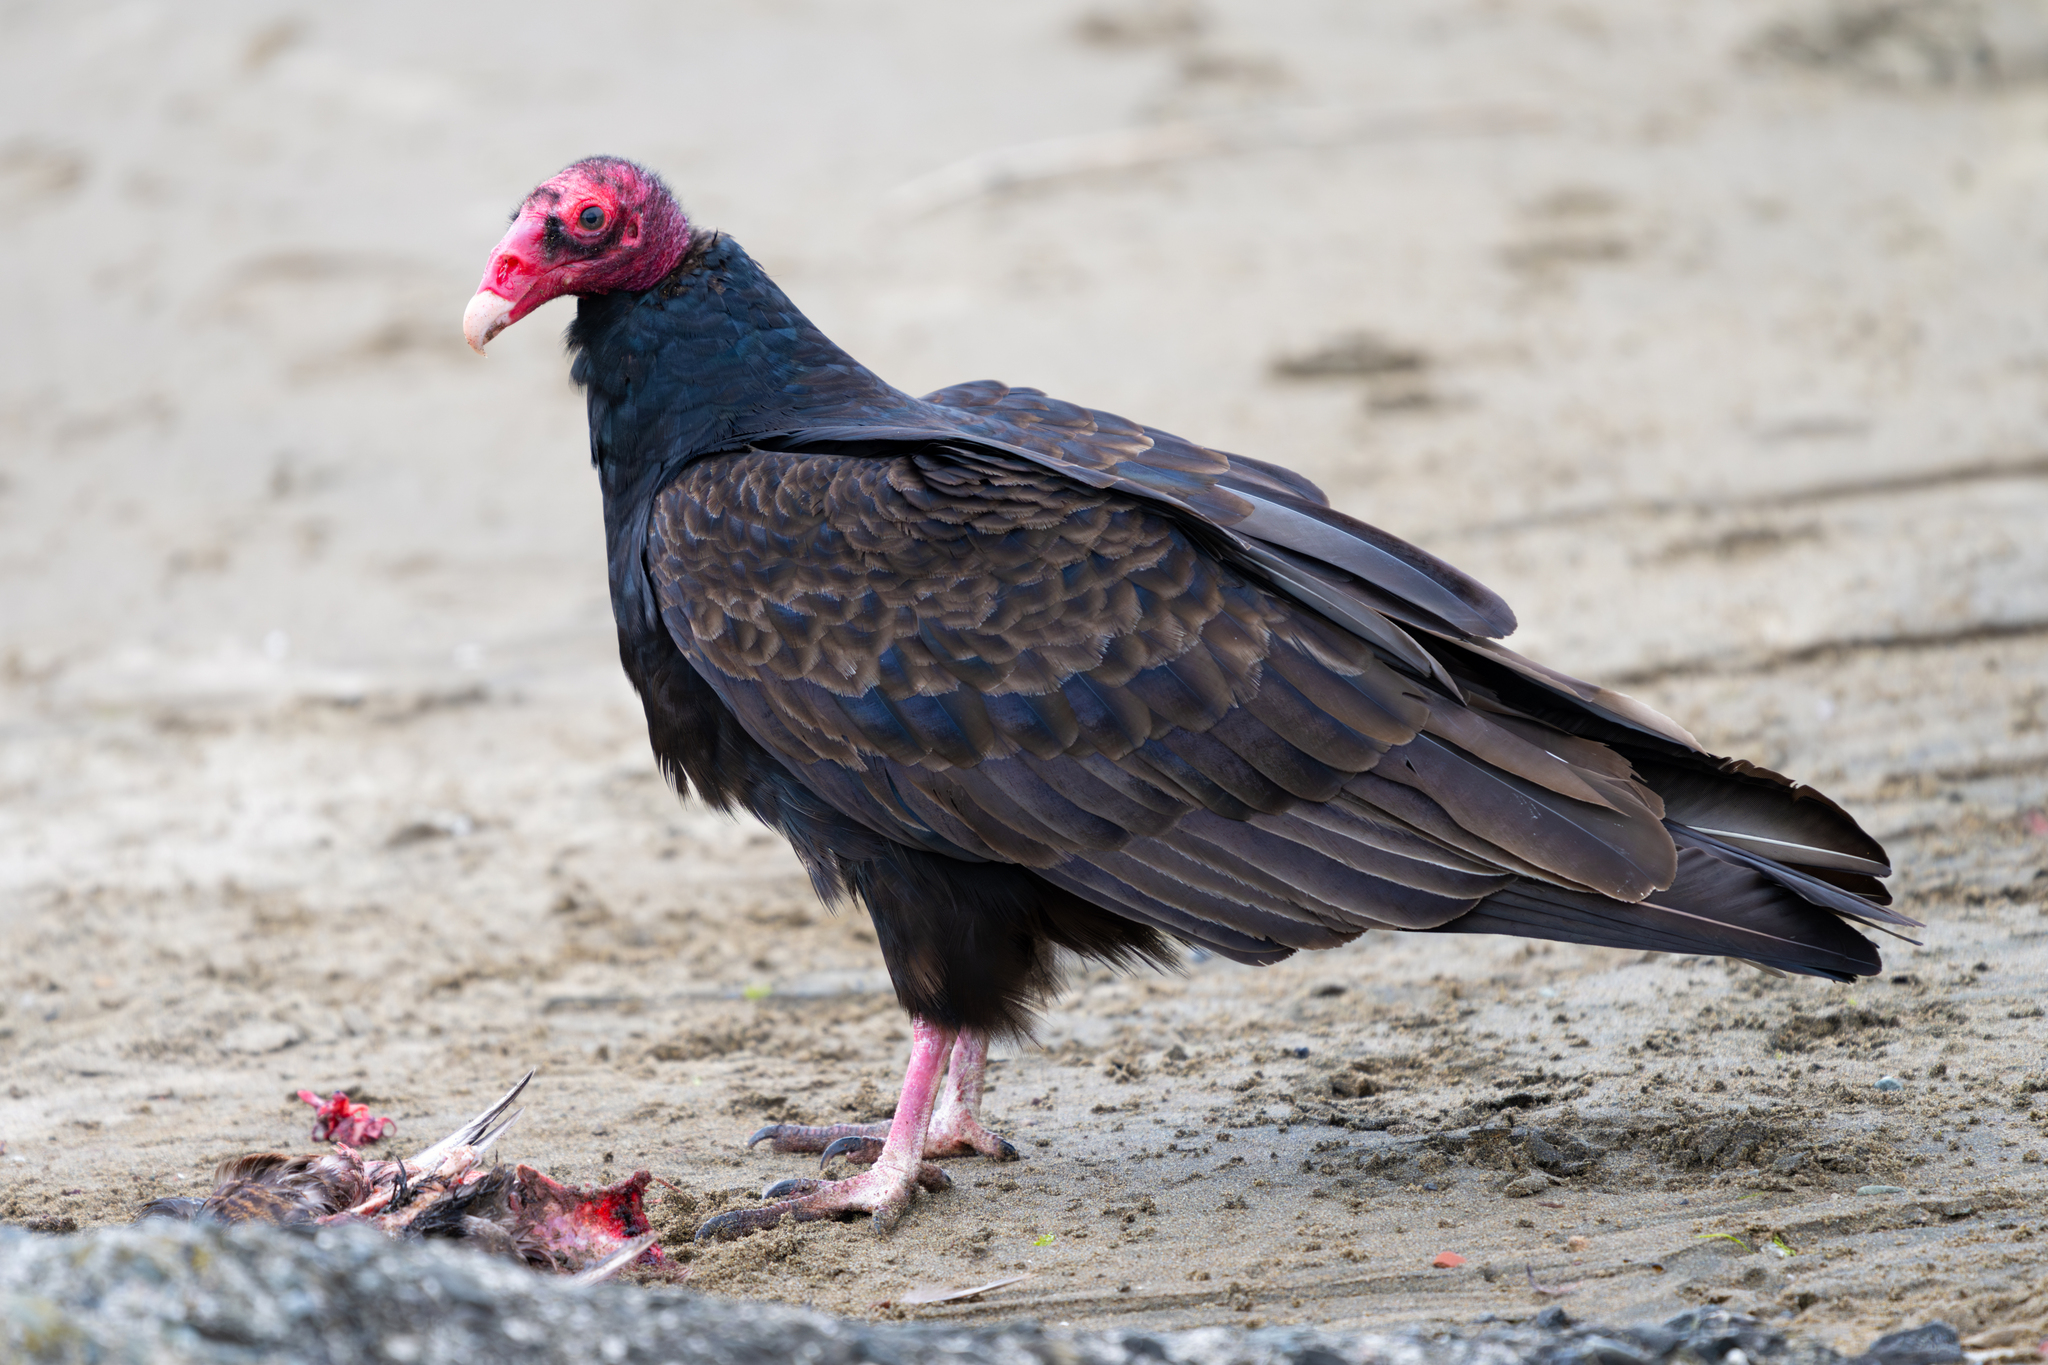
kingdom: Animalia
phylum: Chordata
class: Aves
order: Accipitriformes
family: Cathartidae
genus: Cathartes
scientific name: Cathartes aura
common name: Turkey vulture
